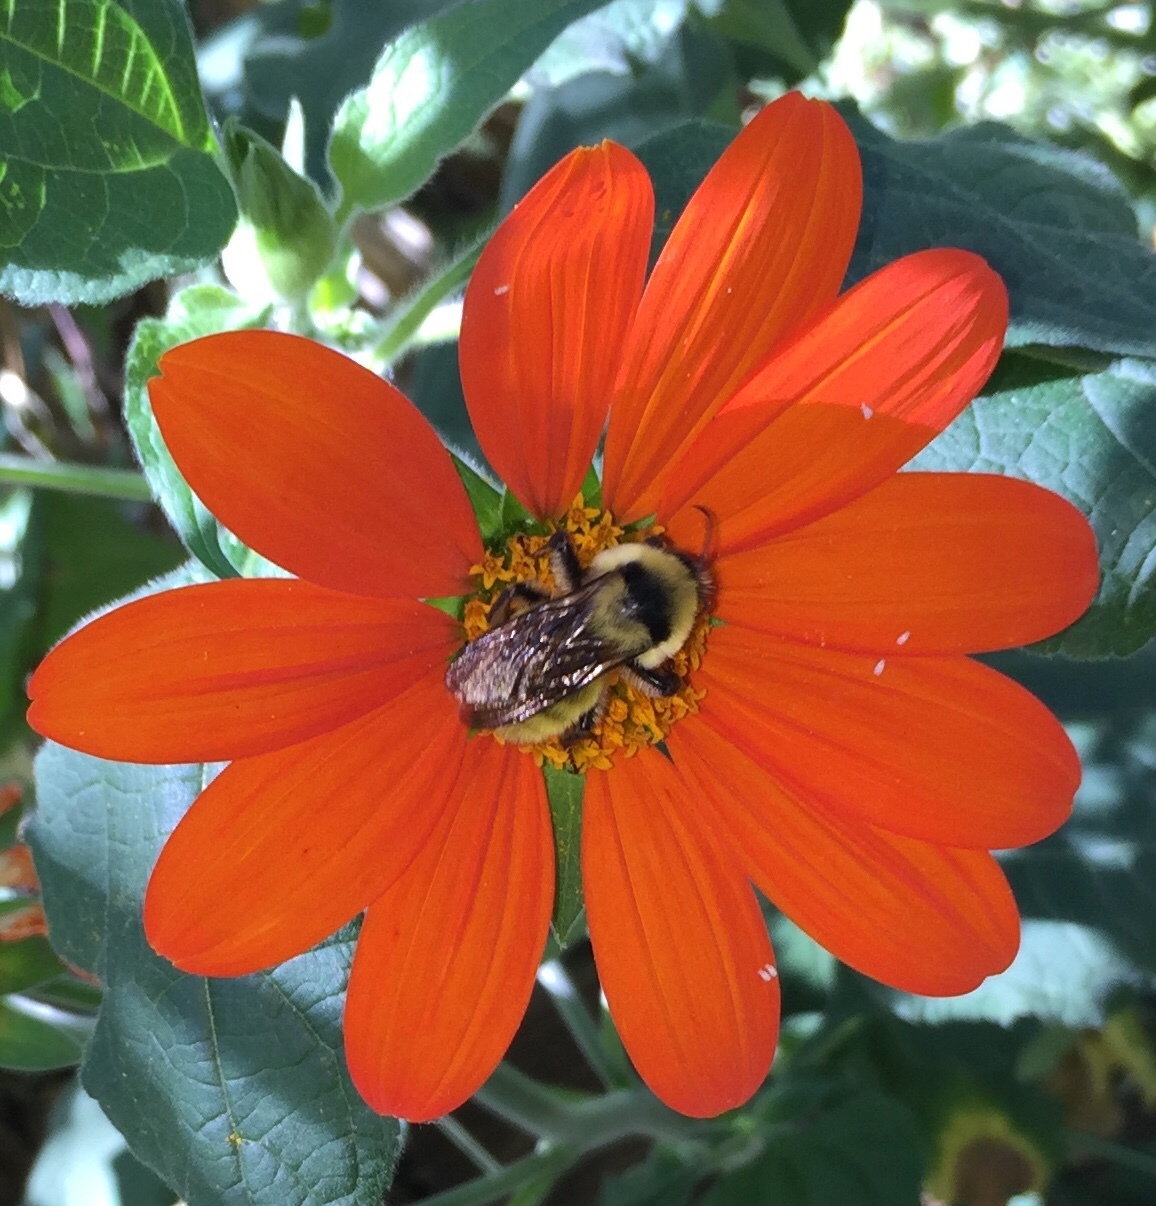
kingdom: Animalia
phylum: Arthropoda
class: Insecta
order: Hymenoptera
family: Apidae
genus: Bombus
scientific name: Bombus fervidus
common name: Yellow bumble bee
